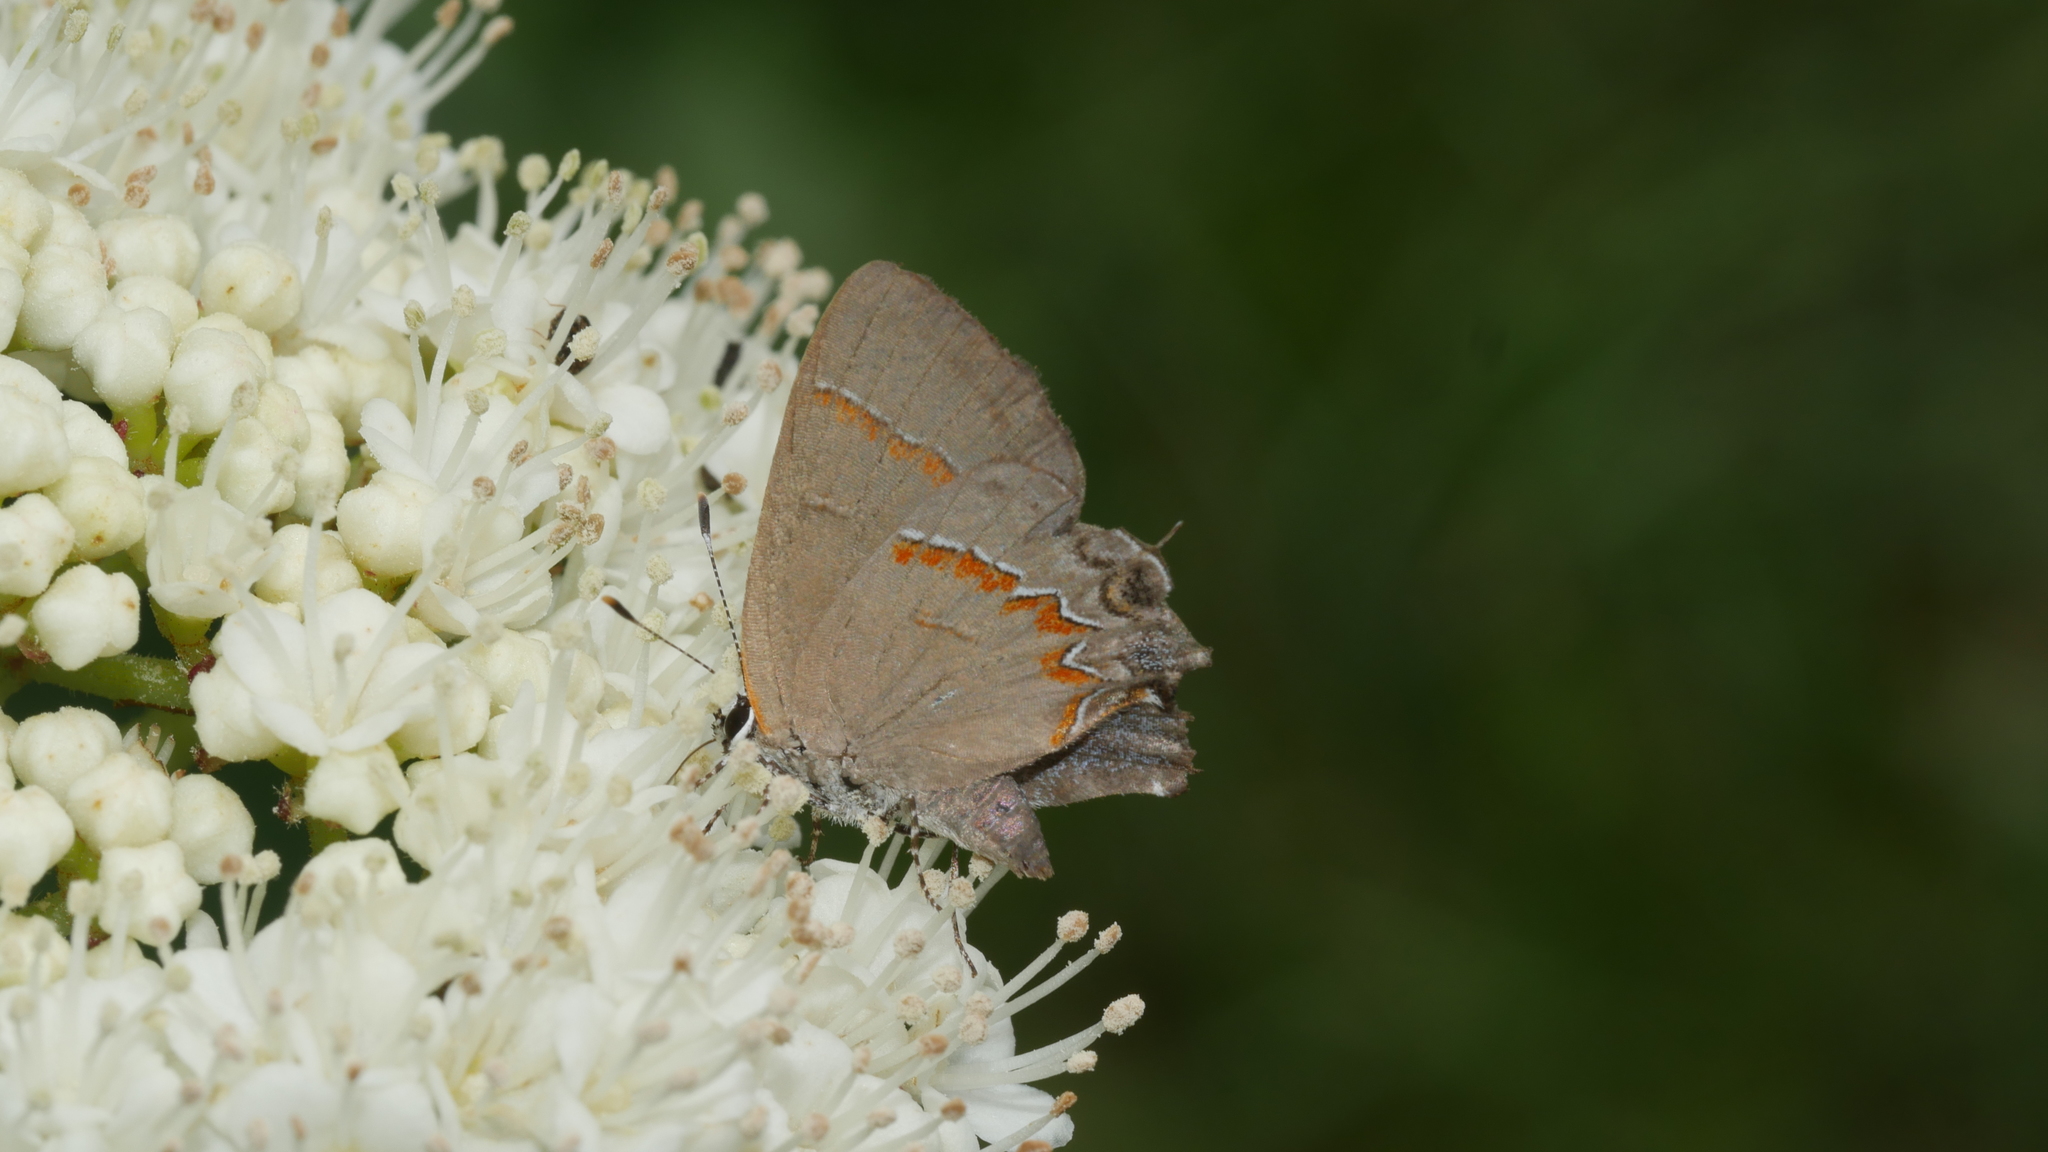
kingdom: Animalia
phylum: Arthropoda
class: Insecta
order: Lepidoptera
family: Lycaenidae
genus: Calycopis
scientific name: Calycopis cecrops
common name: Red-banded hairstreak
